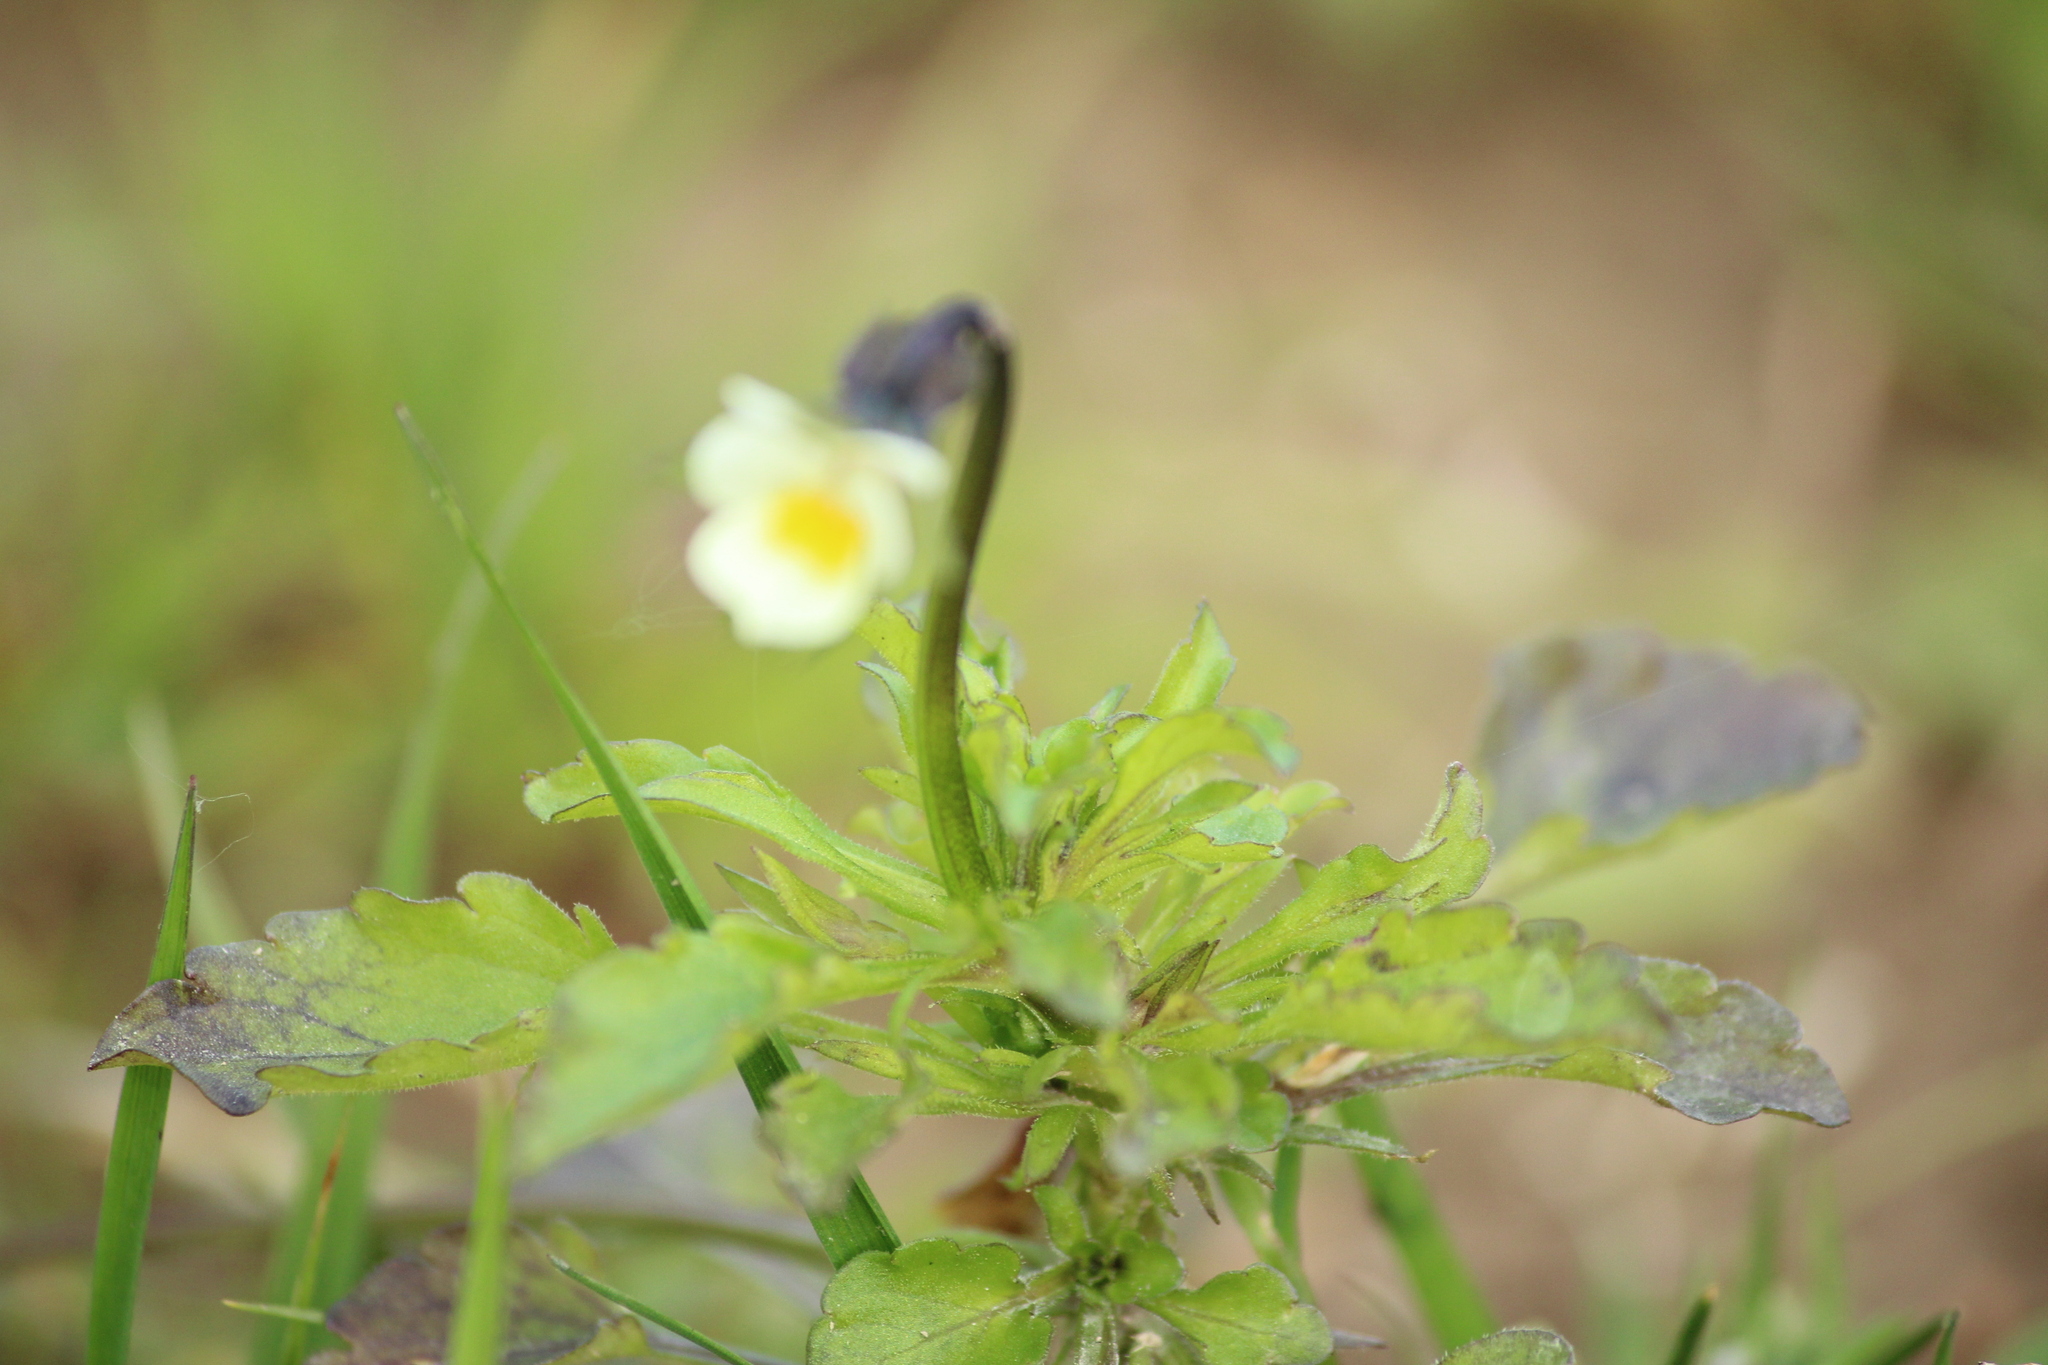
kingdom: Plantae
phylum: Tracheophyta
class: Magnoliopsida
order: Malpighiales
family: Violaceae
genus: Viola
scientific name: Viola arvensis
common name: Field pansy
